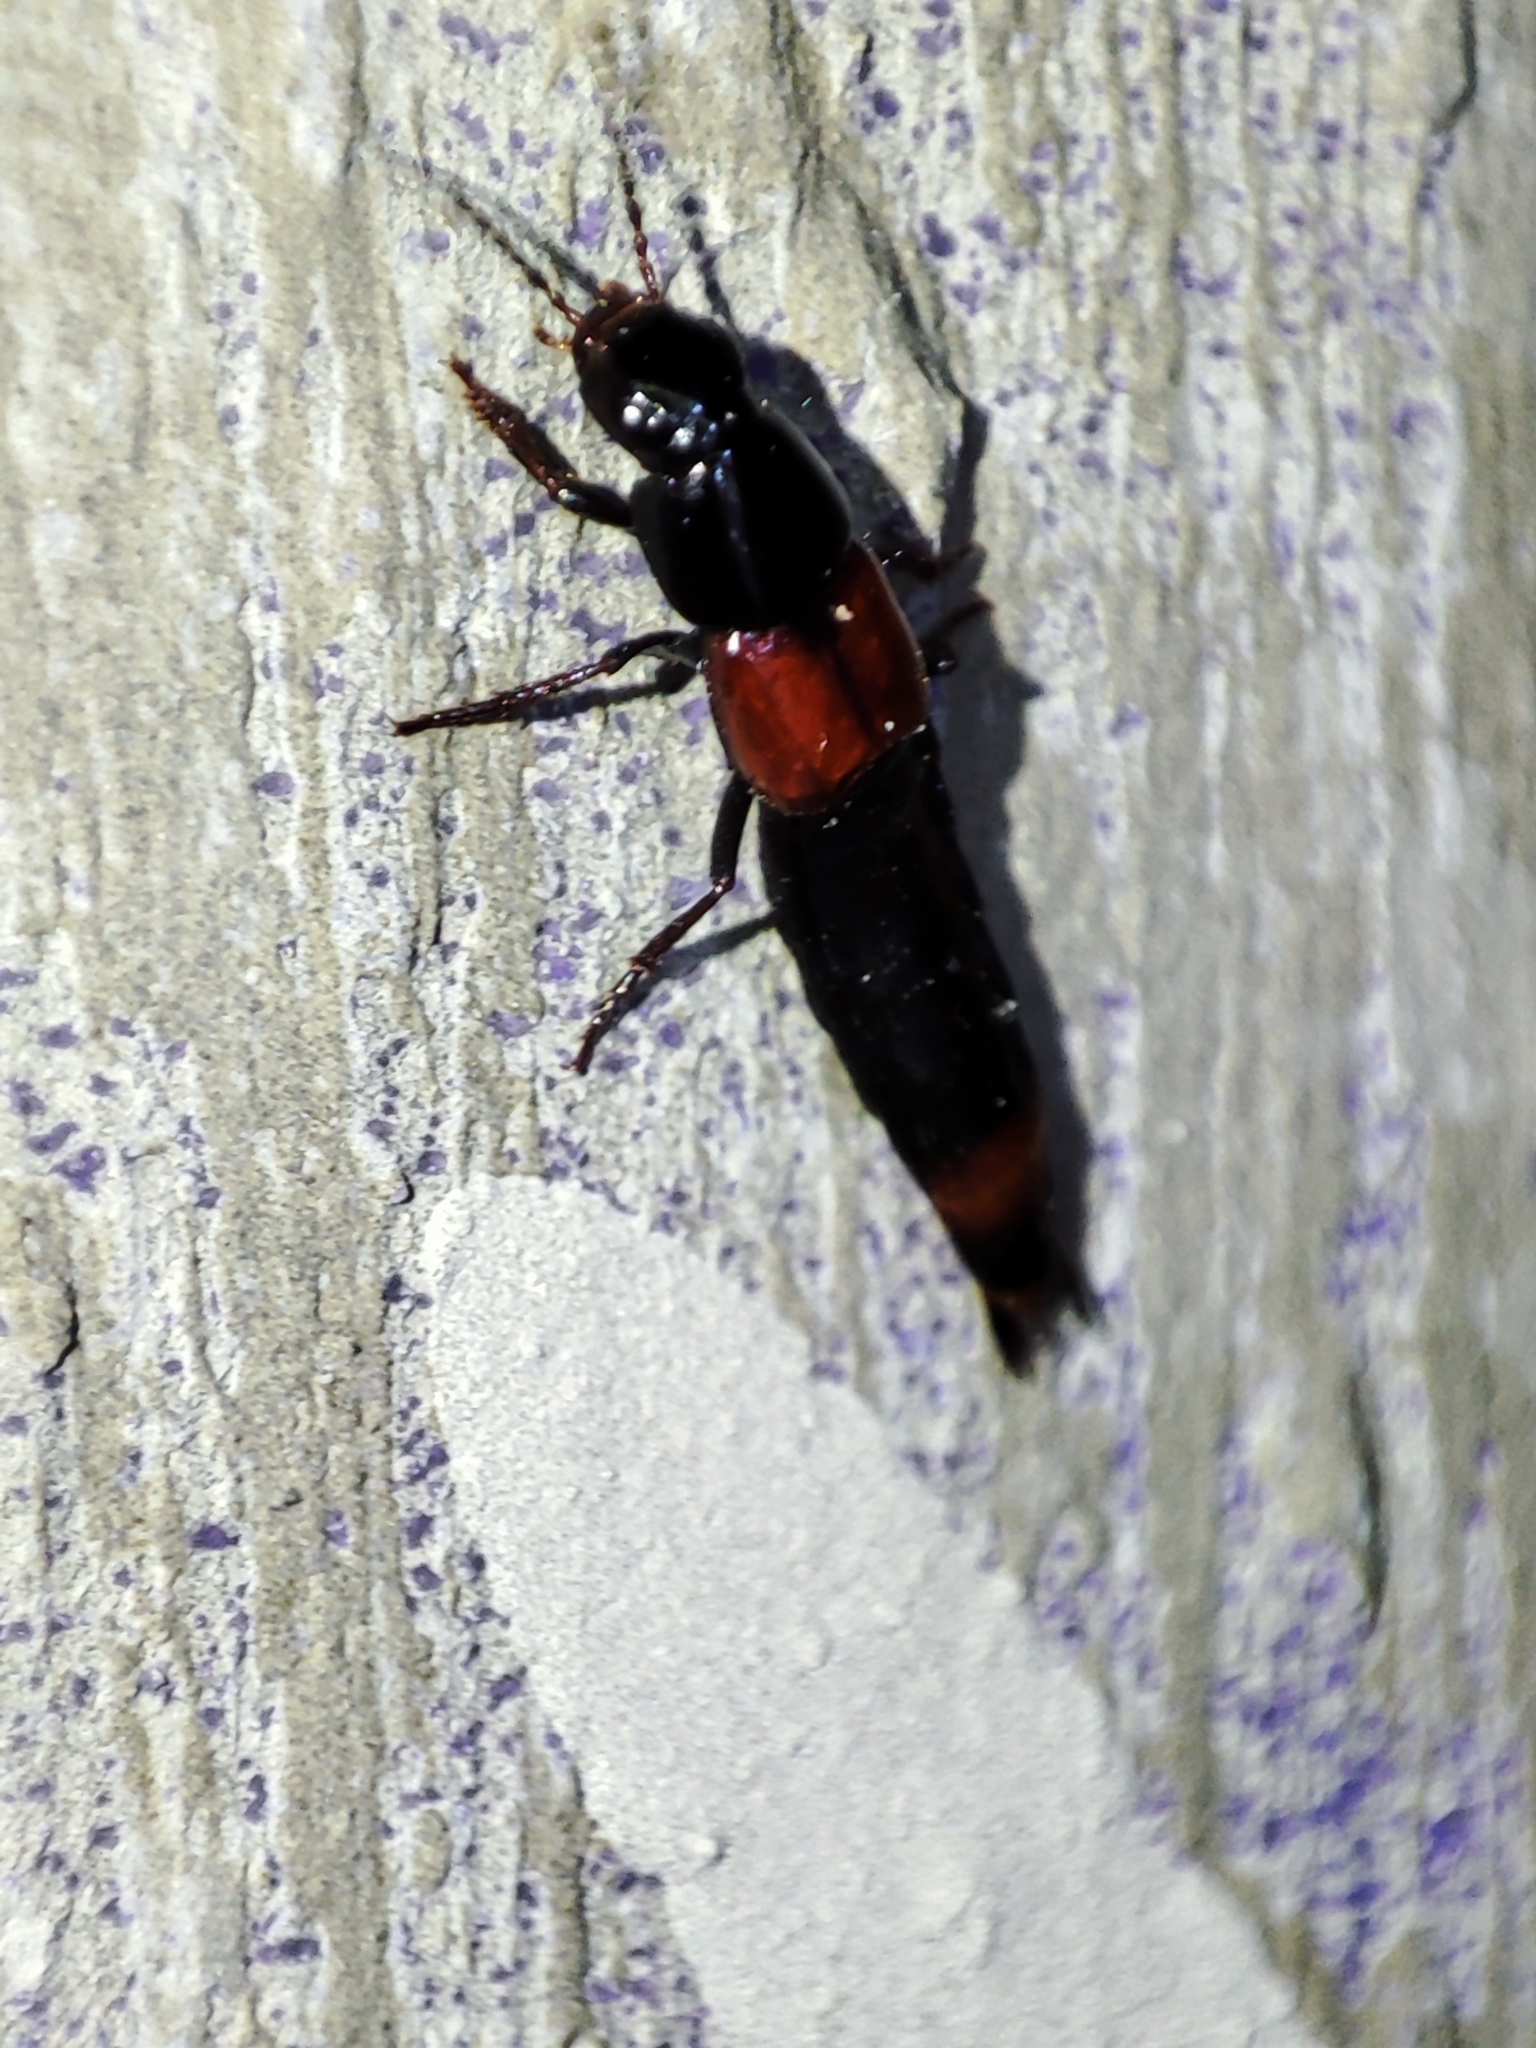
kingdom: Animalia
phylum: Arthropoda
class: Insecta
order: Coleoptera
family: Staphylinidae
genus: Astrapaeus
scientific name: Astrapaeus ulmi
